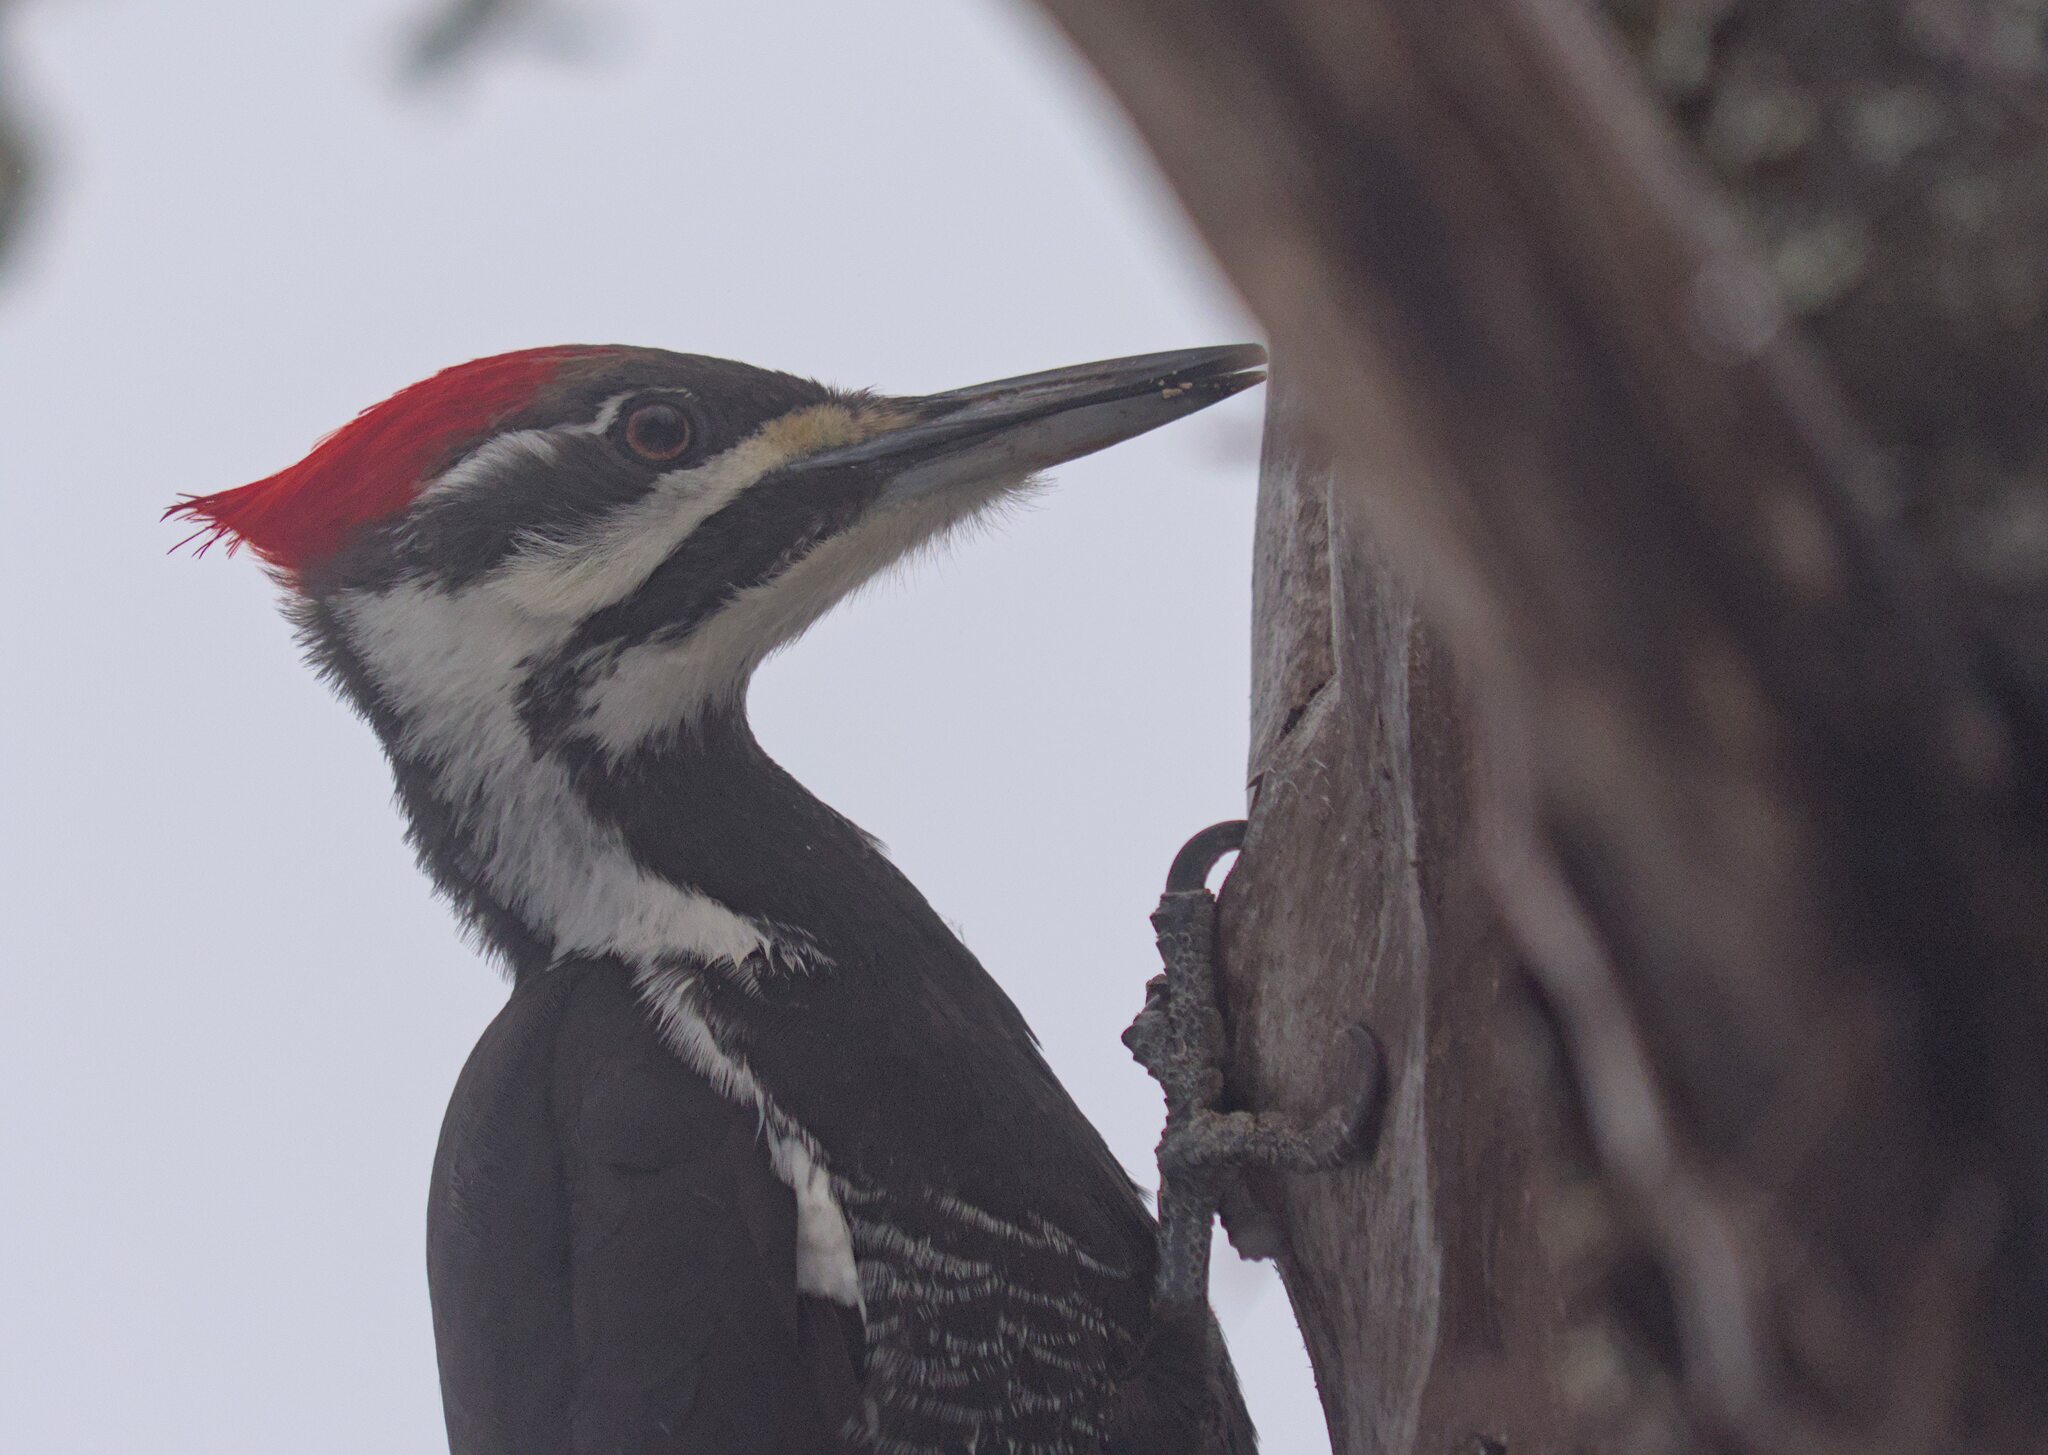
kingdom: Animalia
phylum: Chordata
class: Aves
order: Piciformes
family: Picidae
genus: Dryocopus
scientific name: Dryocopus pileatus
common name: Pileated woodpecker
